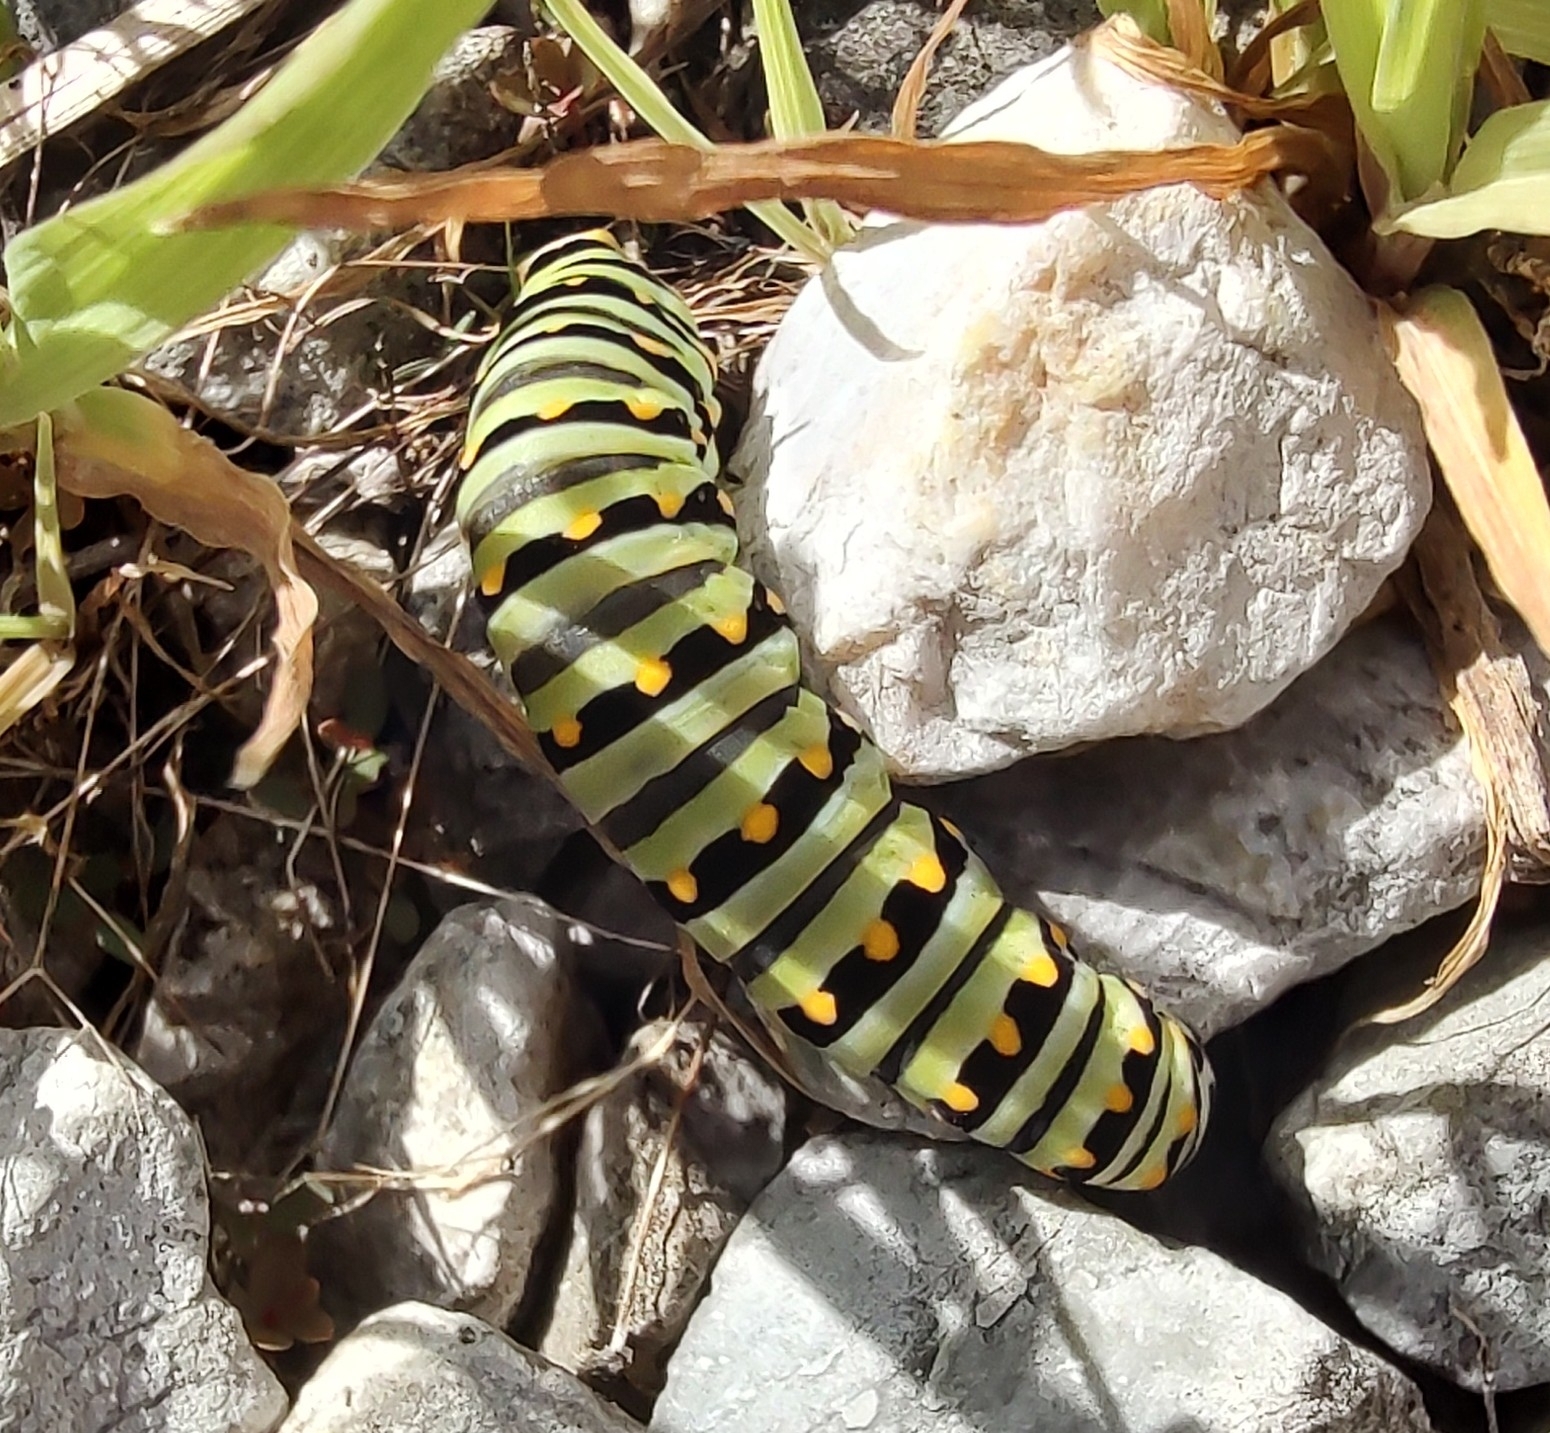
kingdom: Animalia
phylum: Arthropoda
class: Insecta
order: Lepidoptera
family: Papilionidae
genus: Papilio
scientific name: Papilio polyxenes
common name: Black swallowtail
